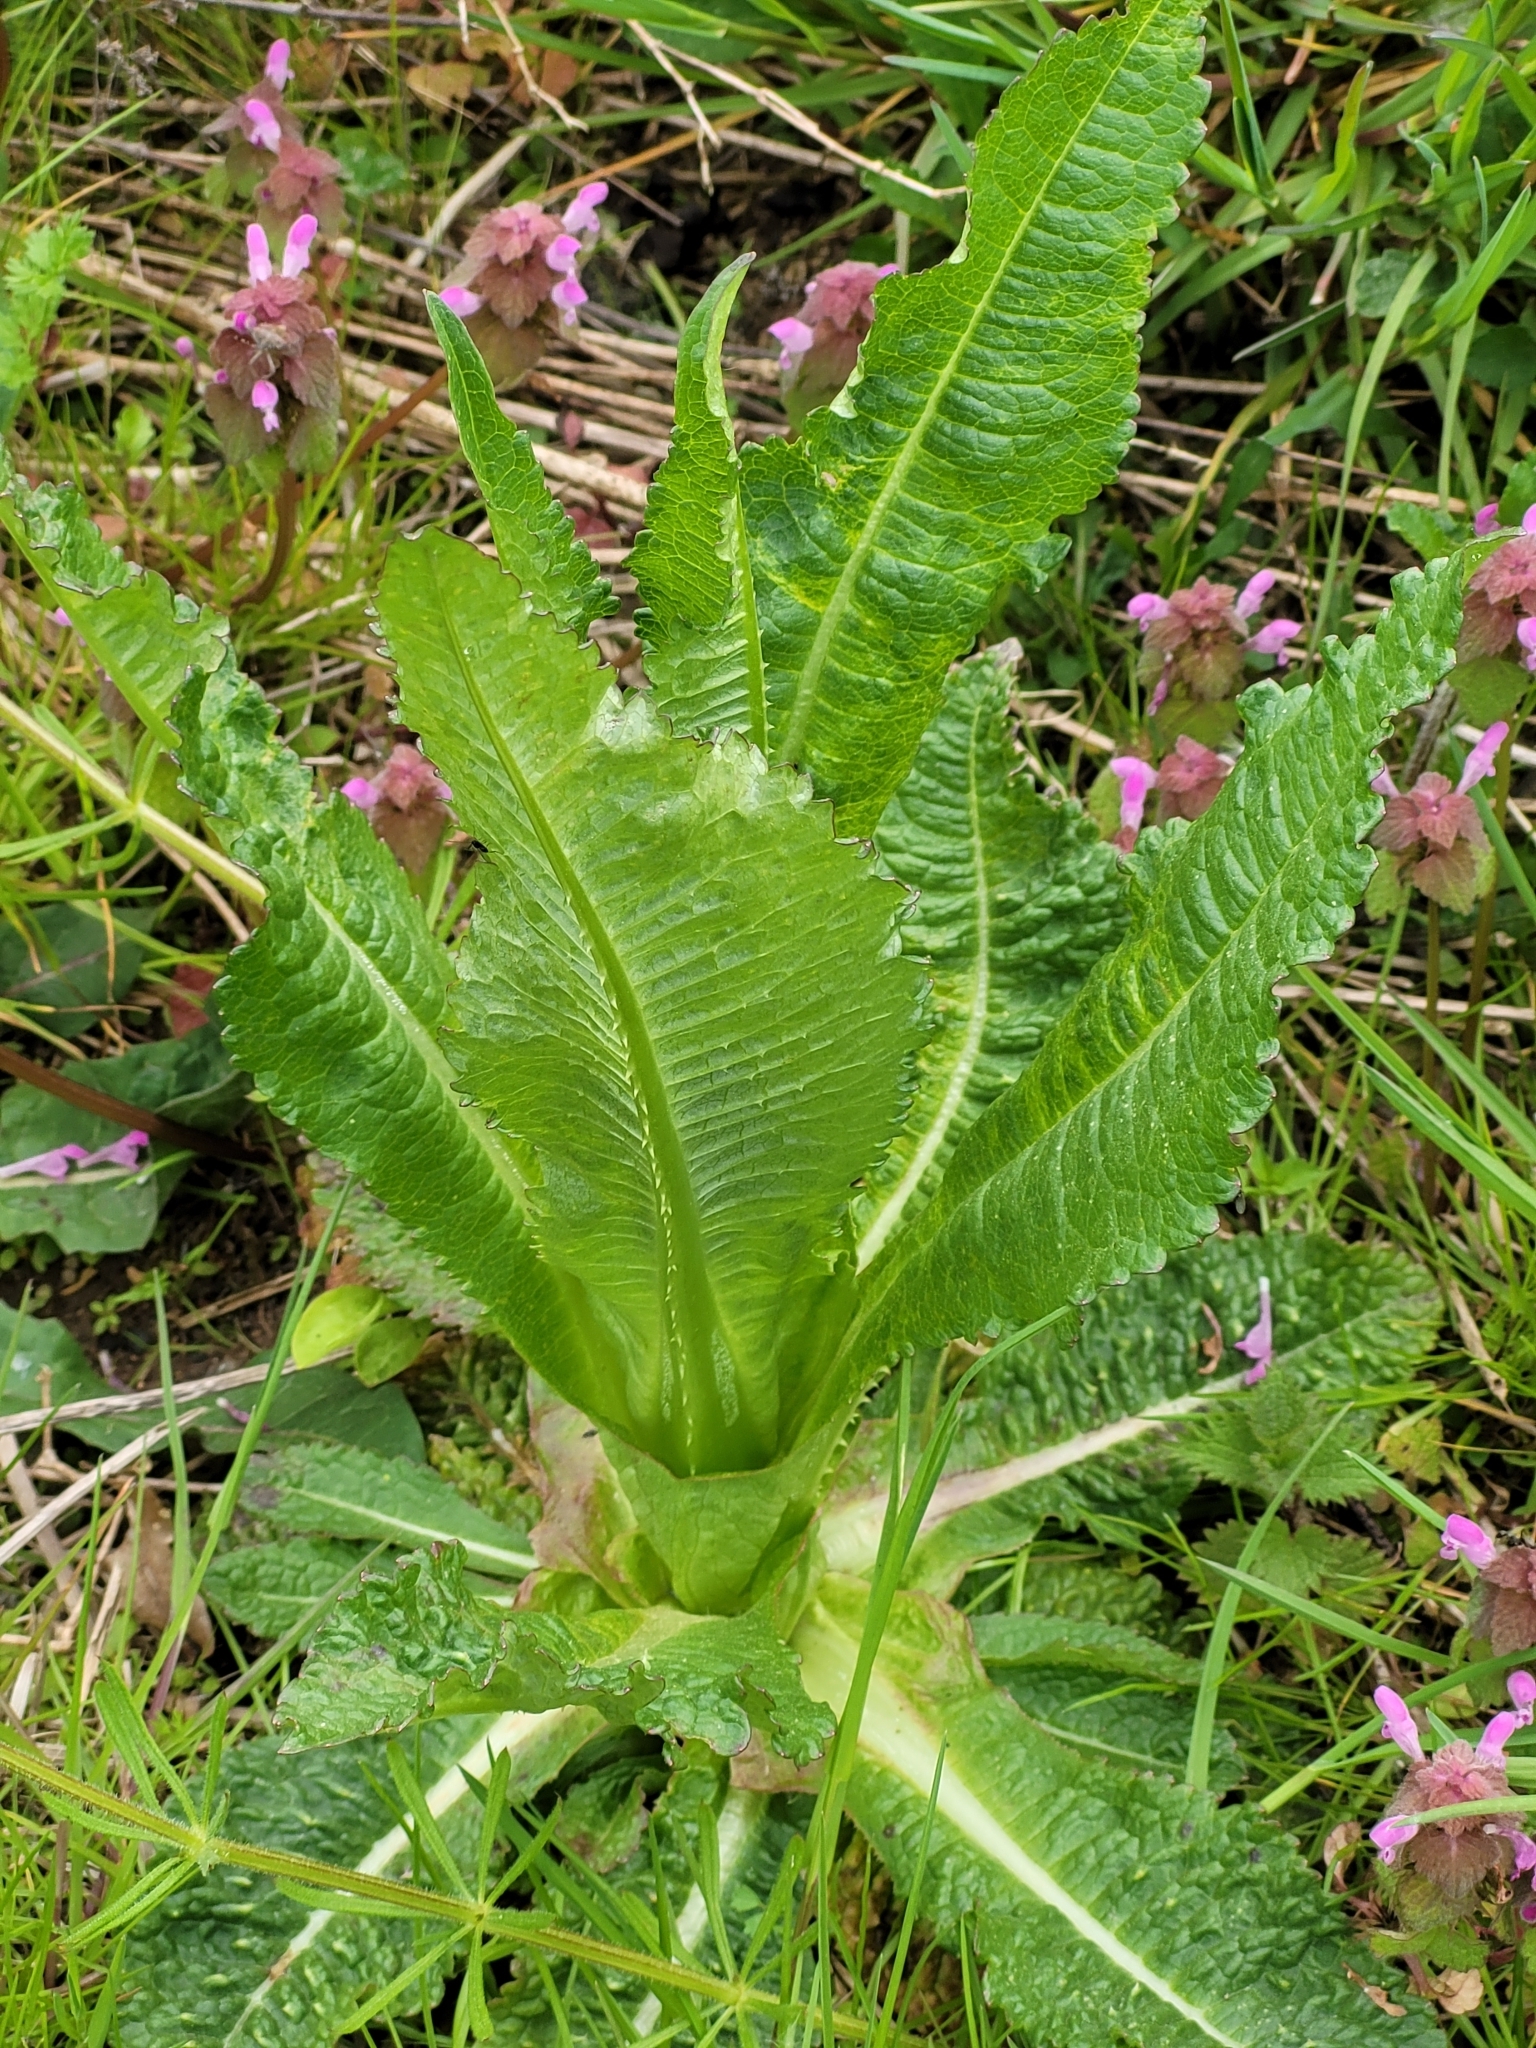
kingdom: Plantae
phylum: Tracheophyta
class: Magnoliopsida
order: Dipsacales
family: Caprifoliaceae
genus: Dipsacus
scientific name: Dipsacus fullonum
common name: Teasel
